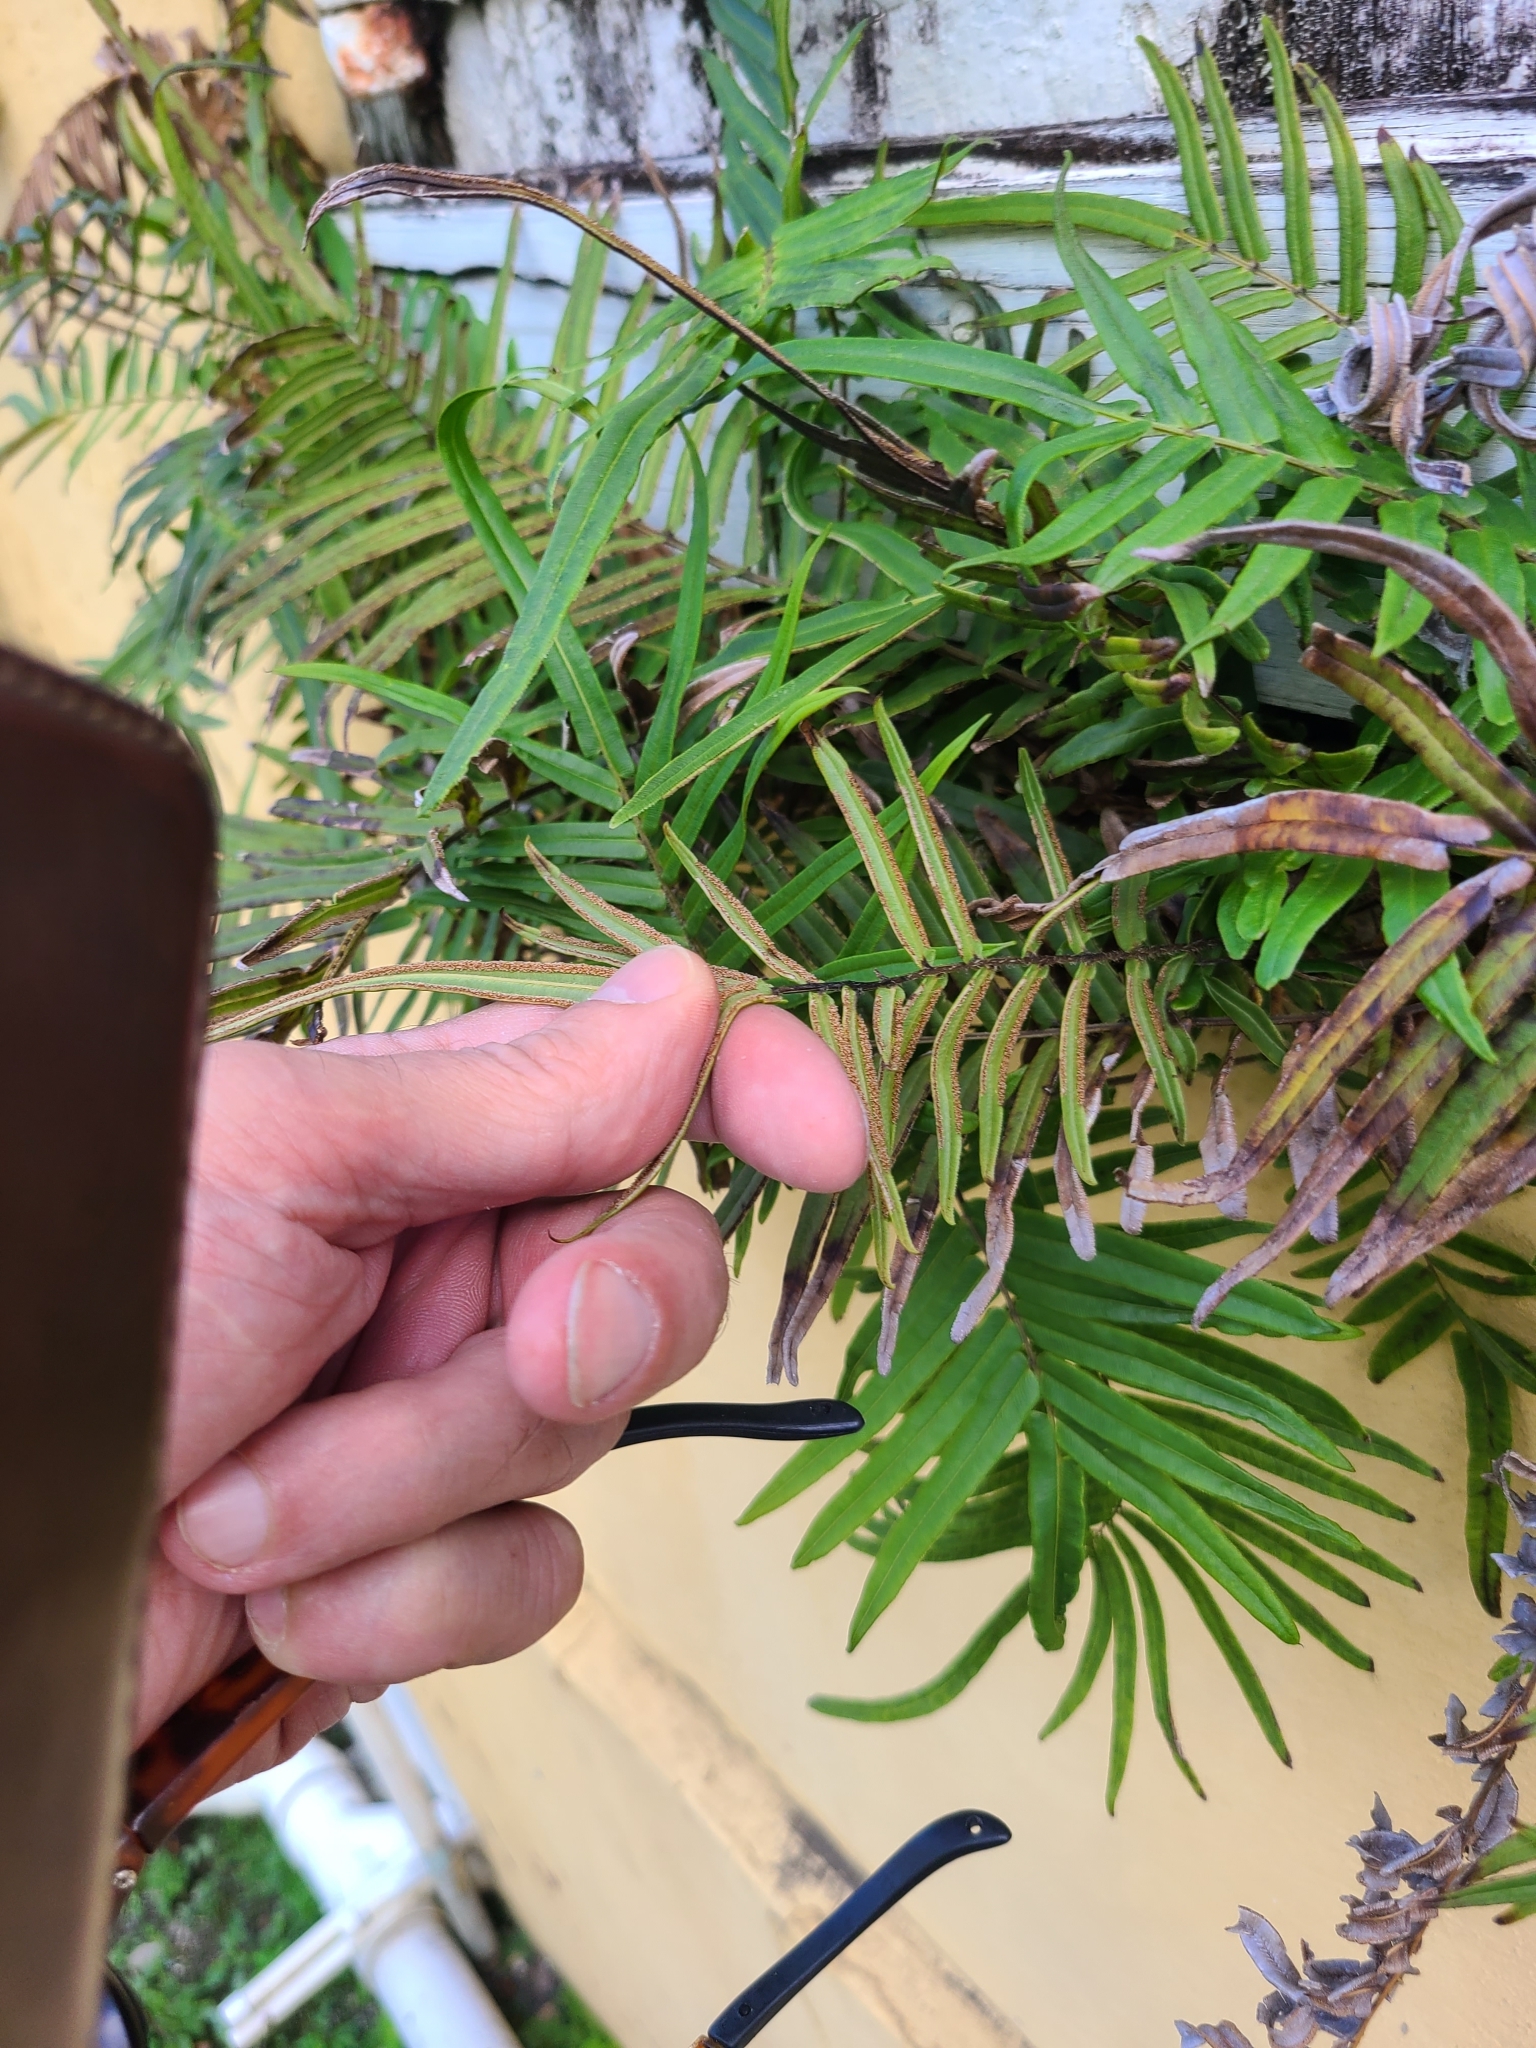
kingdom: Plantae
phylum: Tracheophyta
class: Polypodiopsida
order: Polypodiales
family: Pteridaceae
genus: Pteris
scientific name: Pteris vittata
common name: Ladder brake
